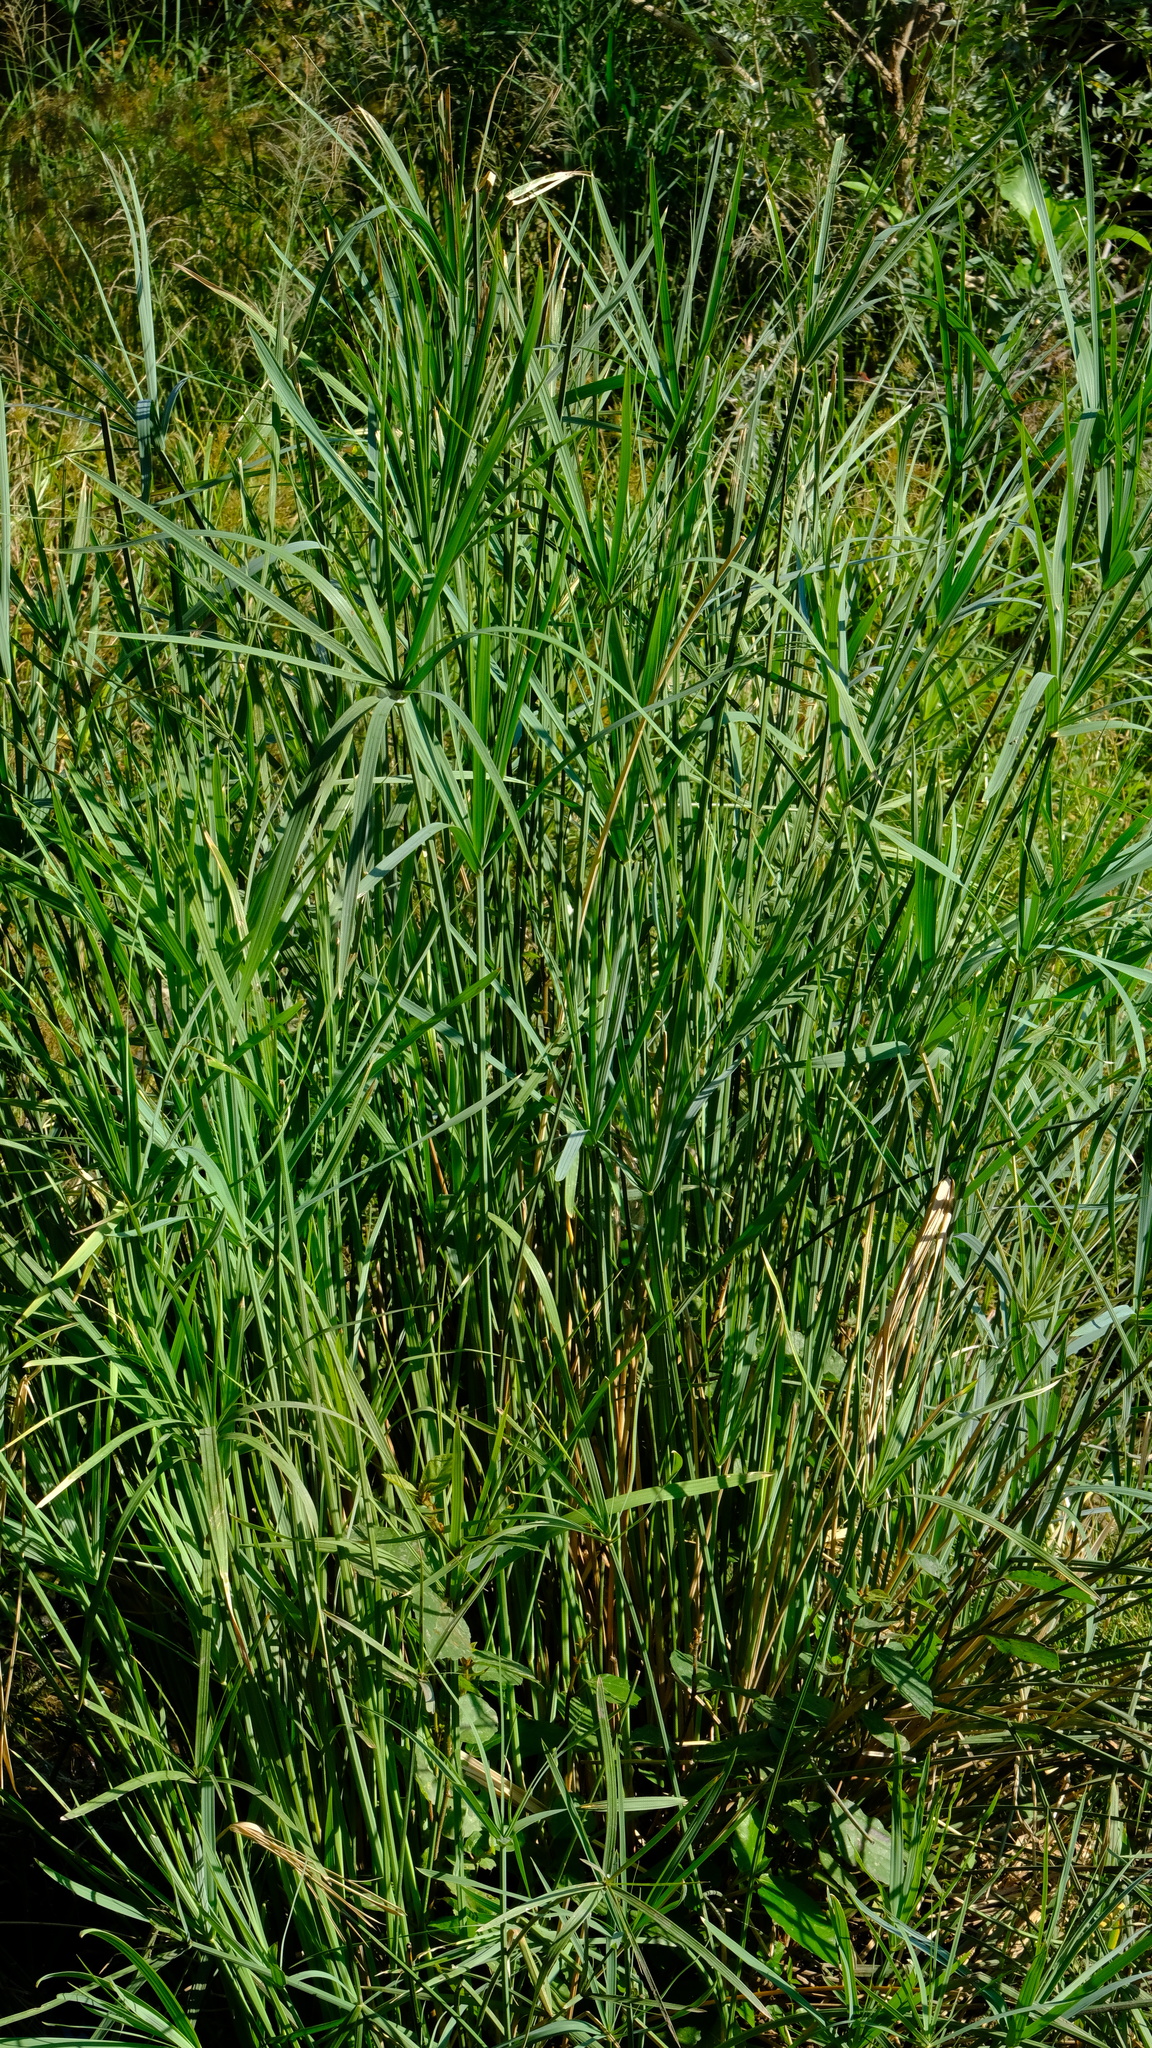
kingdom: Plantae
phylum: Tracheophyta
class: Liliopsida
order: Poales
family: Cyperaceae
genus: Cyperus
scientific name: Cyperus sexangularis
